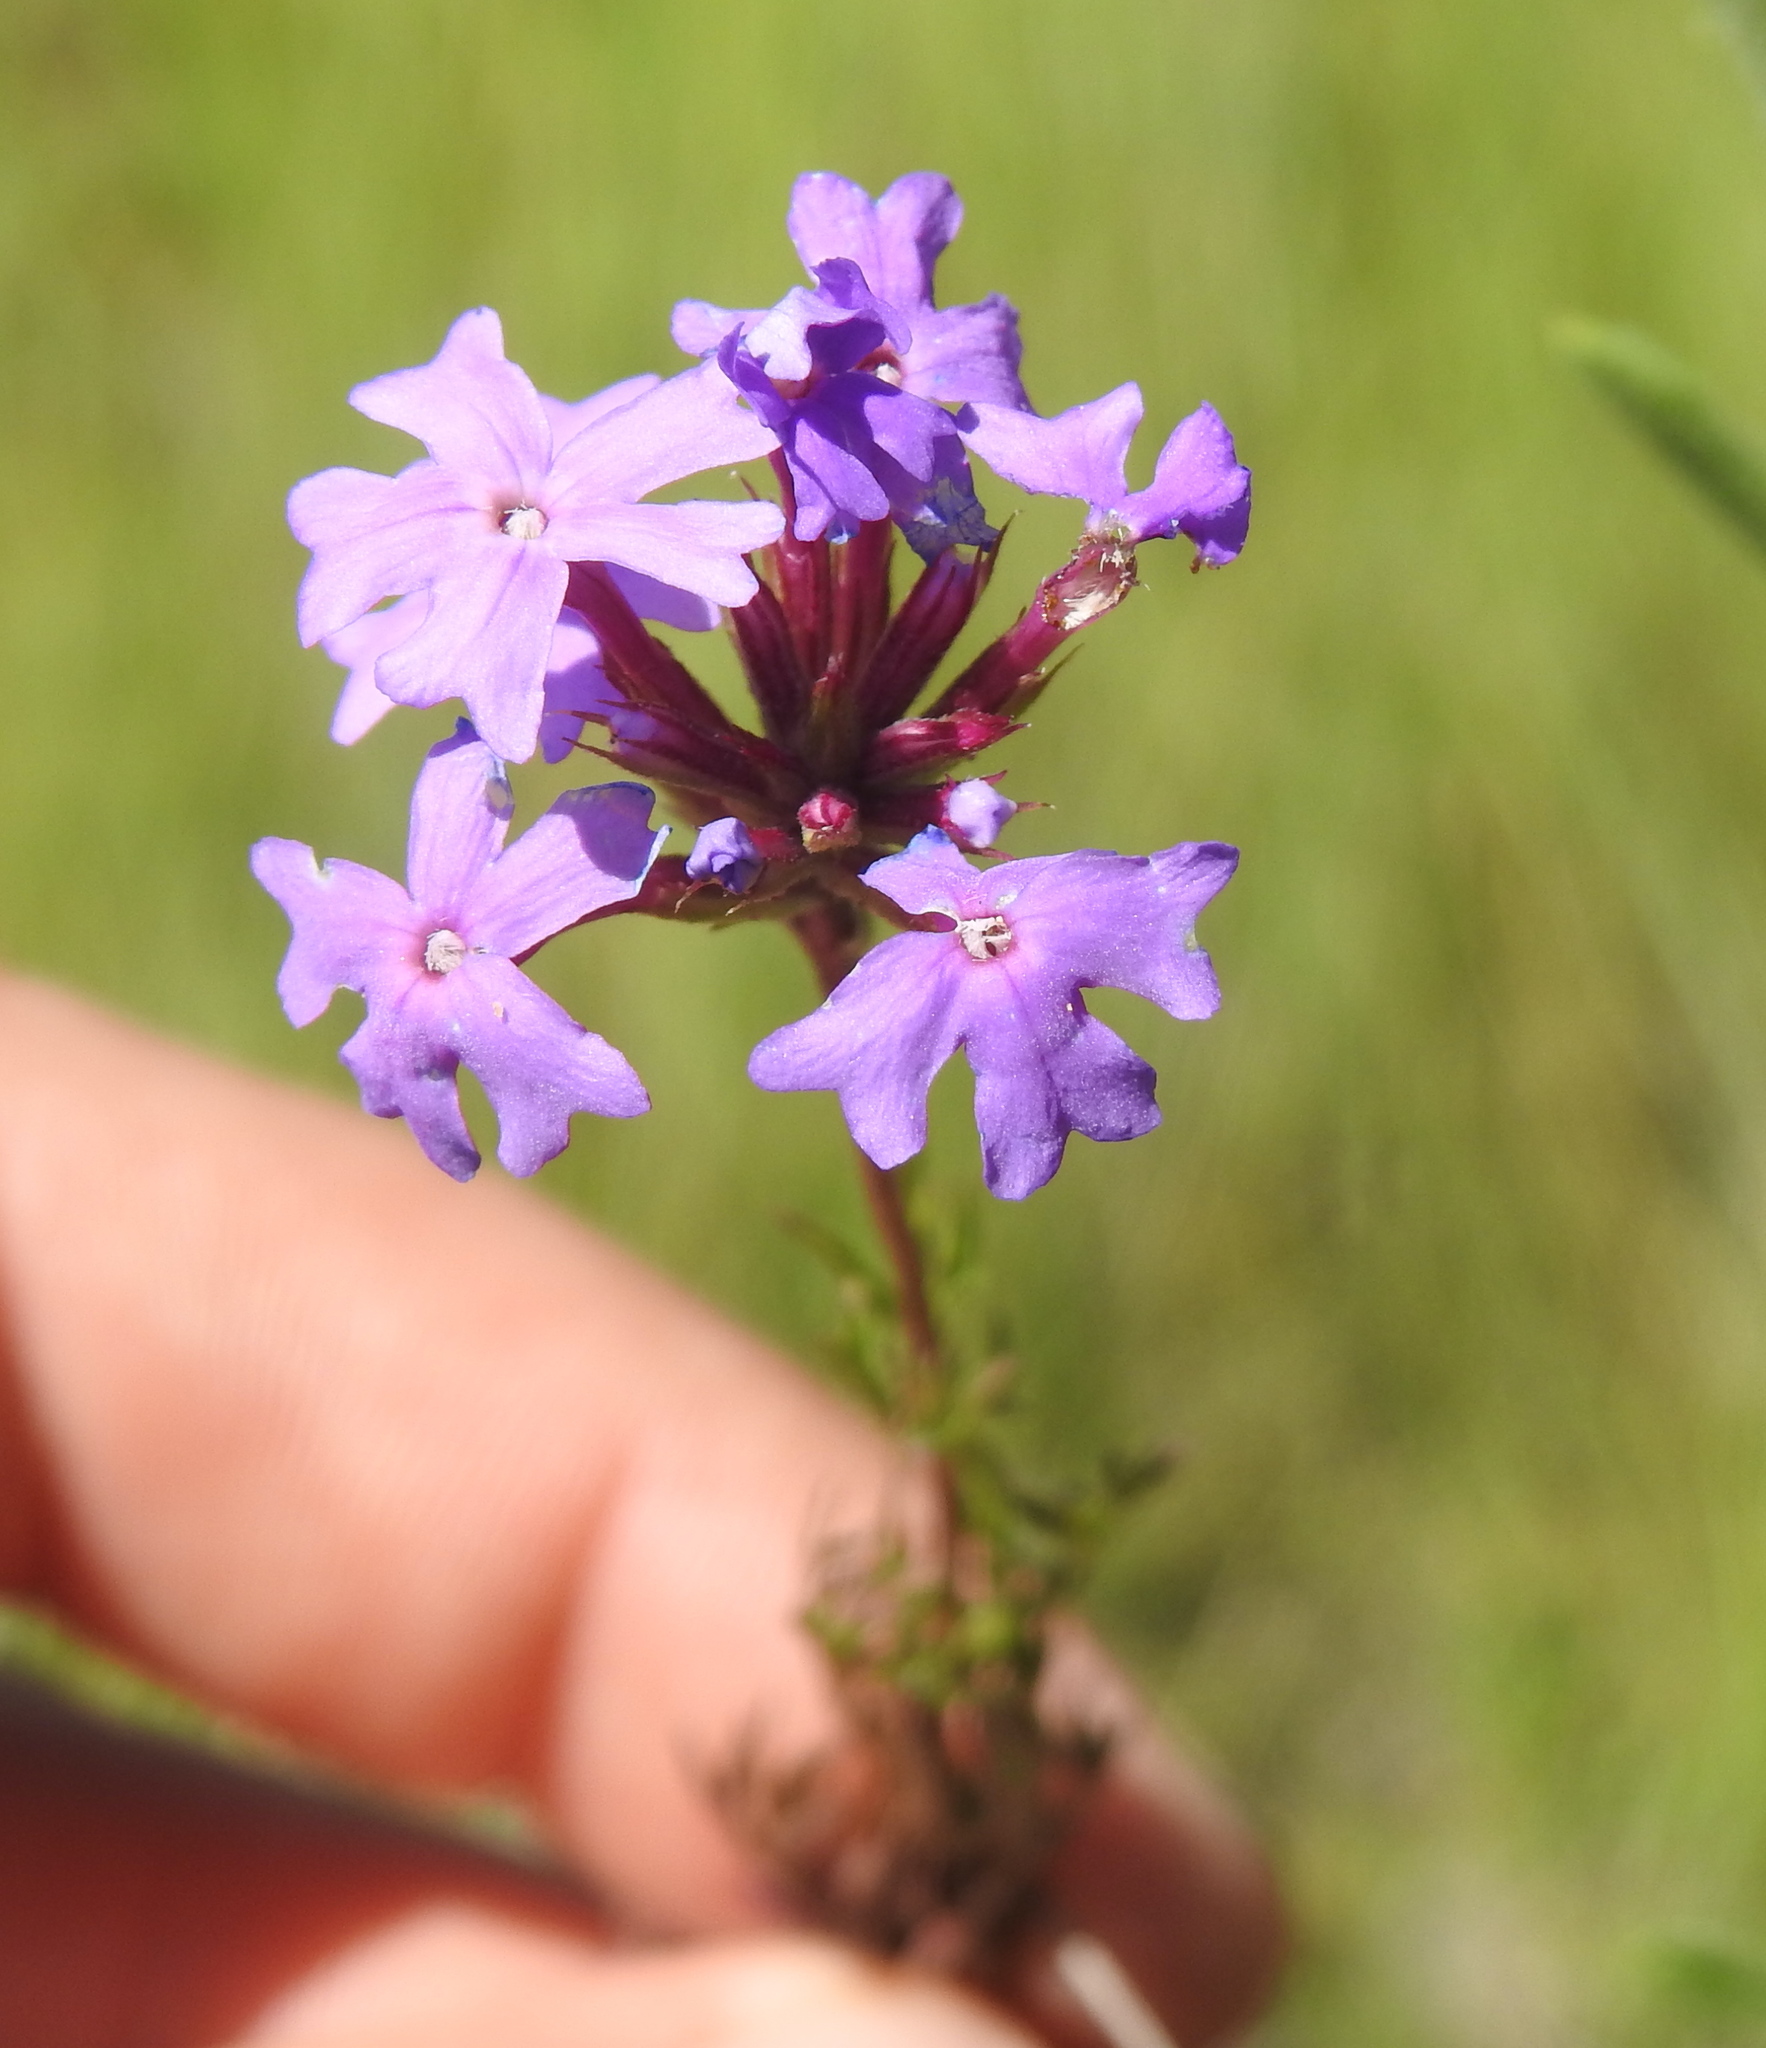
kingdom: Plantae
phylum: Tracheophyta
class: Magnoliopsida
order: Lamiales
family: Verbenaceae
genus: Verbena
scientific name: Verbena aristigera
